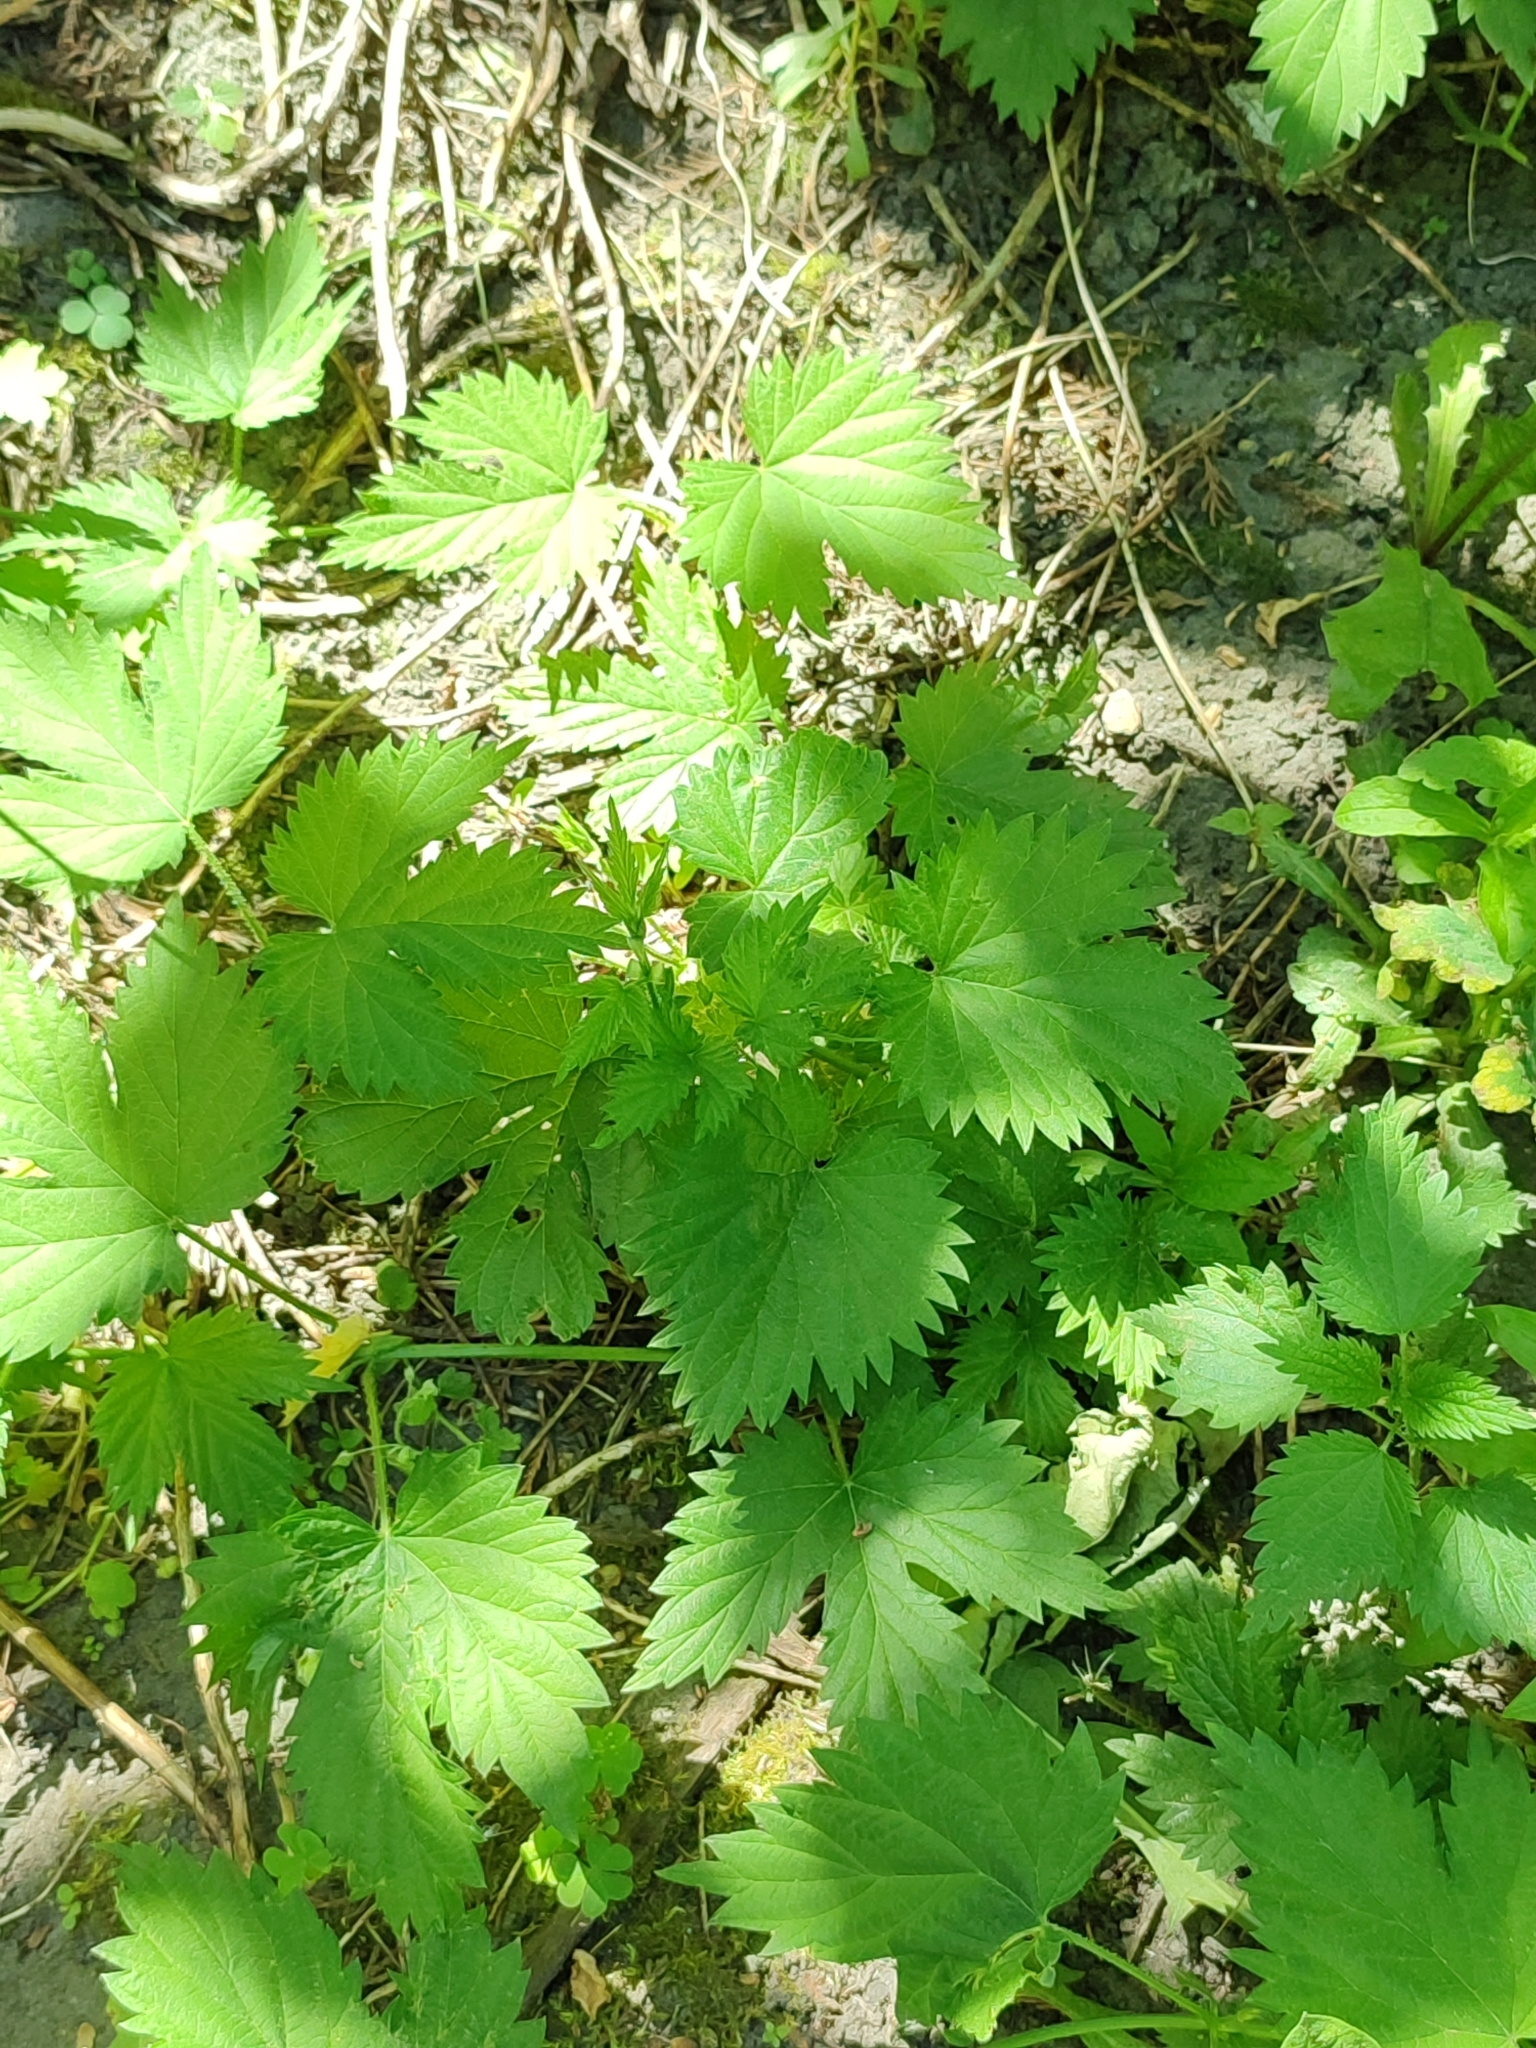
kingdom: Plantae
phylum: Tracheophyta
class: Magnoliopsida
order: Rosales
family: Cannabaceae
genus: Humulus
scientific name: Humulus lupulus
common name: Hop
